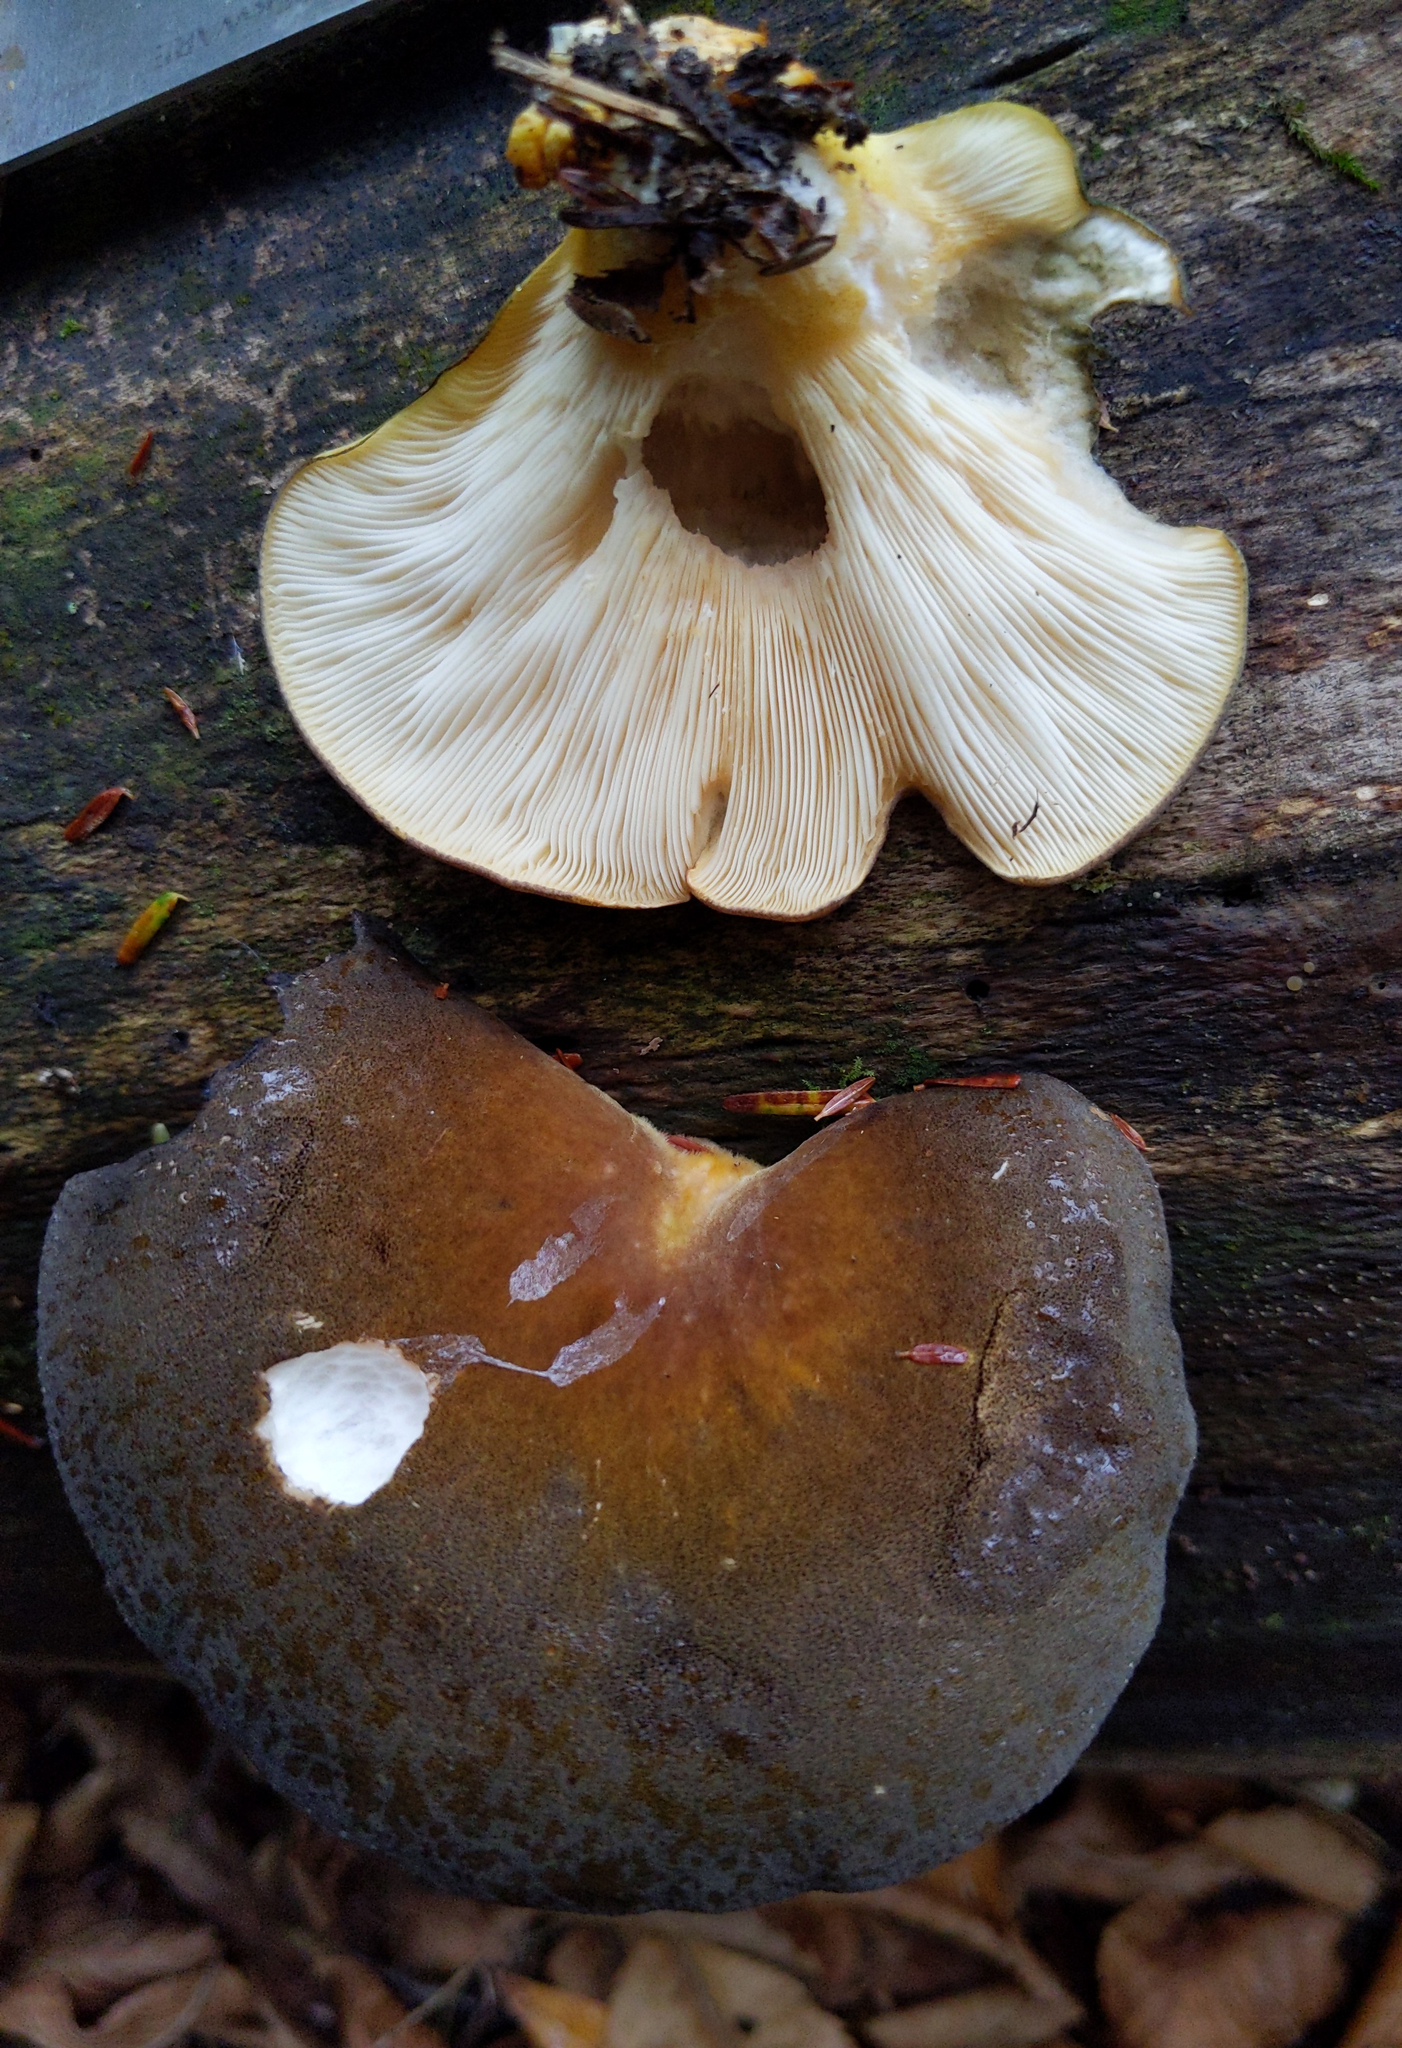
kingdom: Fungi
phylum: Basidiomycota
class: Agaricomycetes
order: Agaricales
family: Sarcomyxaceae
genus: Sarcomyxa
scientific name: Sarcomyxa serotina
